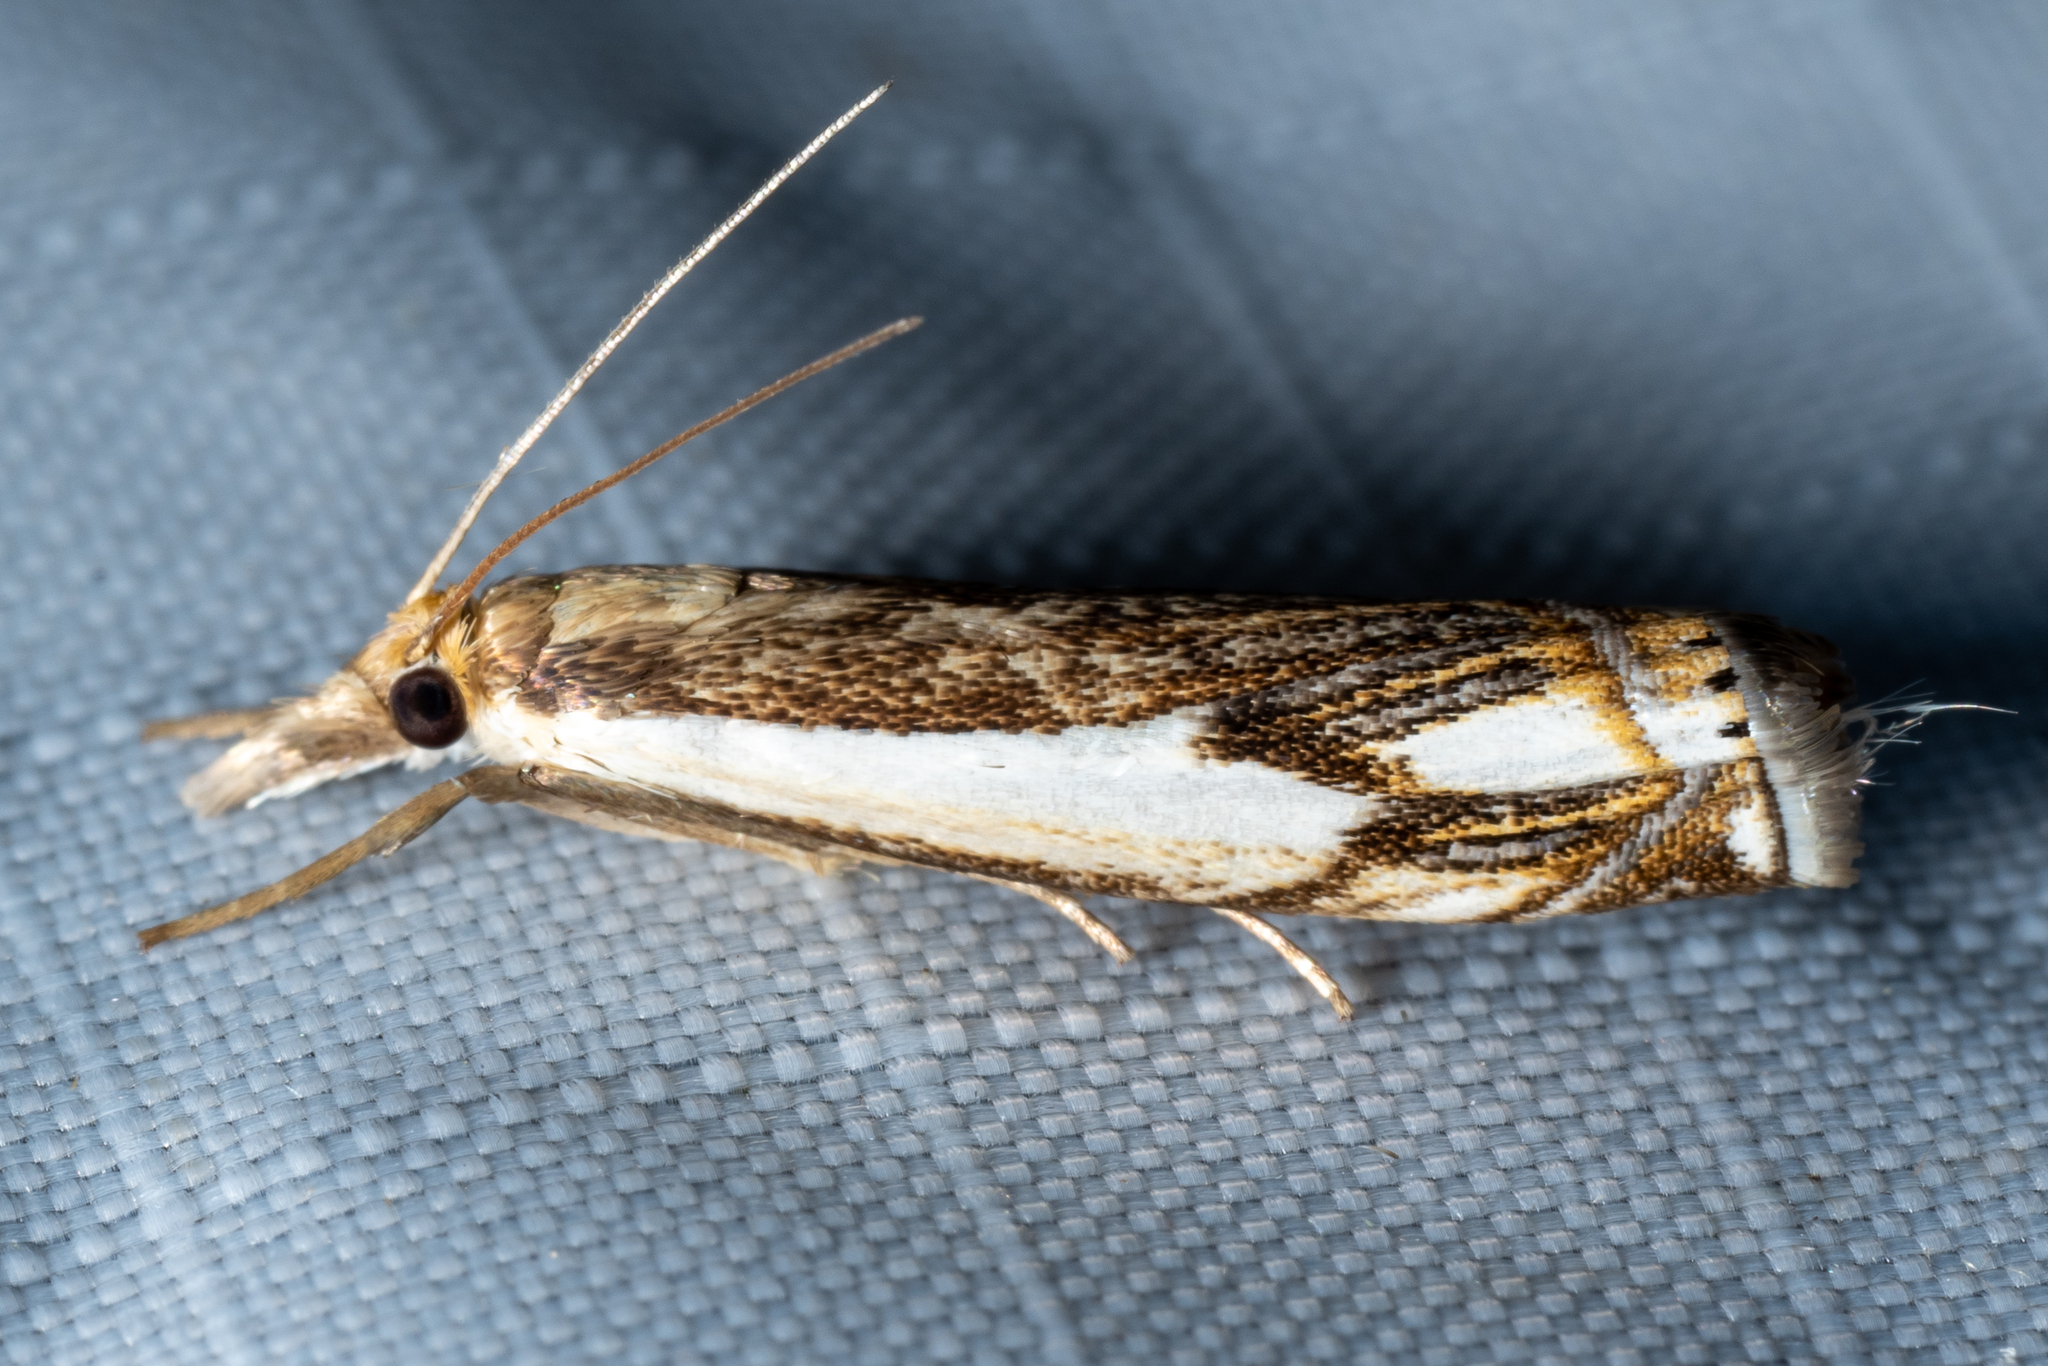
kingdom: Animalia
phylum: Arthropoda
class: Insecta
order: Lepidoptera
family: Crambidae
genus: Crambus
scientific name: Crambus agitatellus
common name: Double-banded grass-veneer
